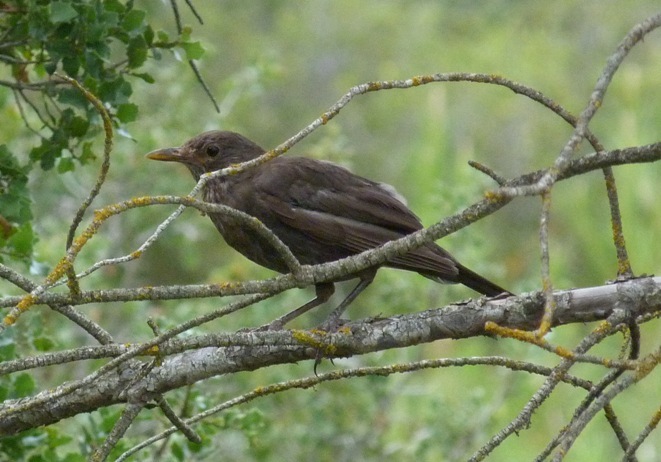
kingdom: Animalia
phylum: Chordata
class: Aves
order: Passeriformes
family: Turdidae
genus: Turdus
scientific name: Turdus merula
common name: Common blackbird
